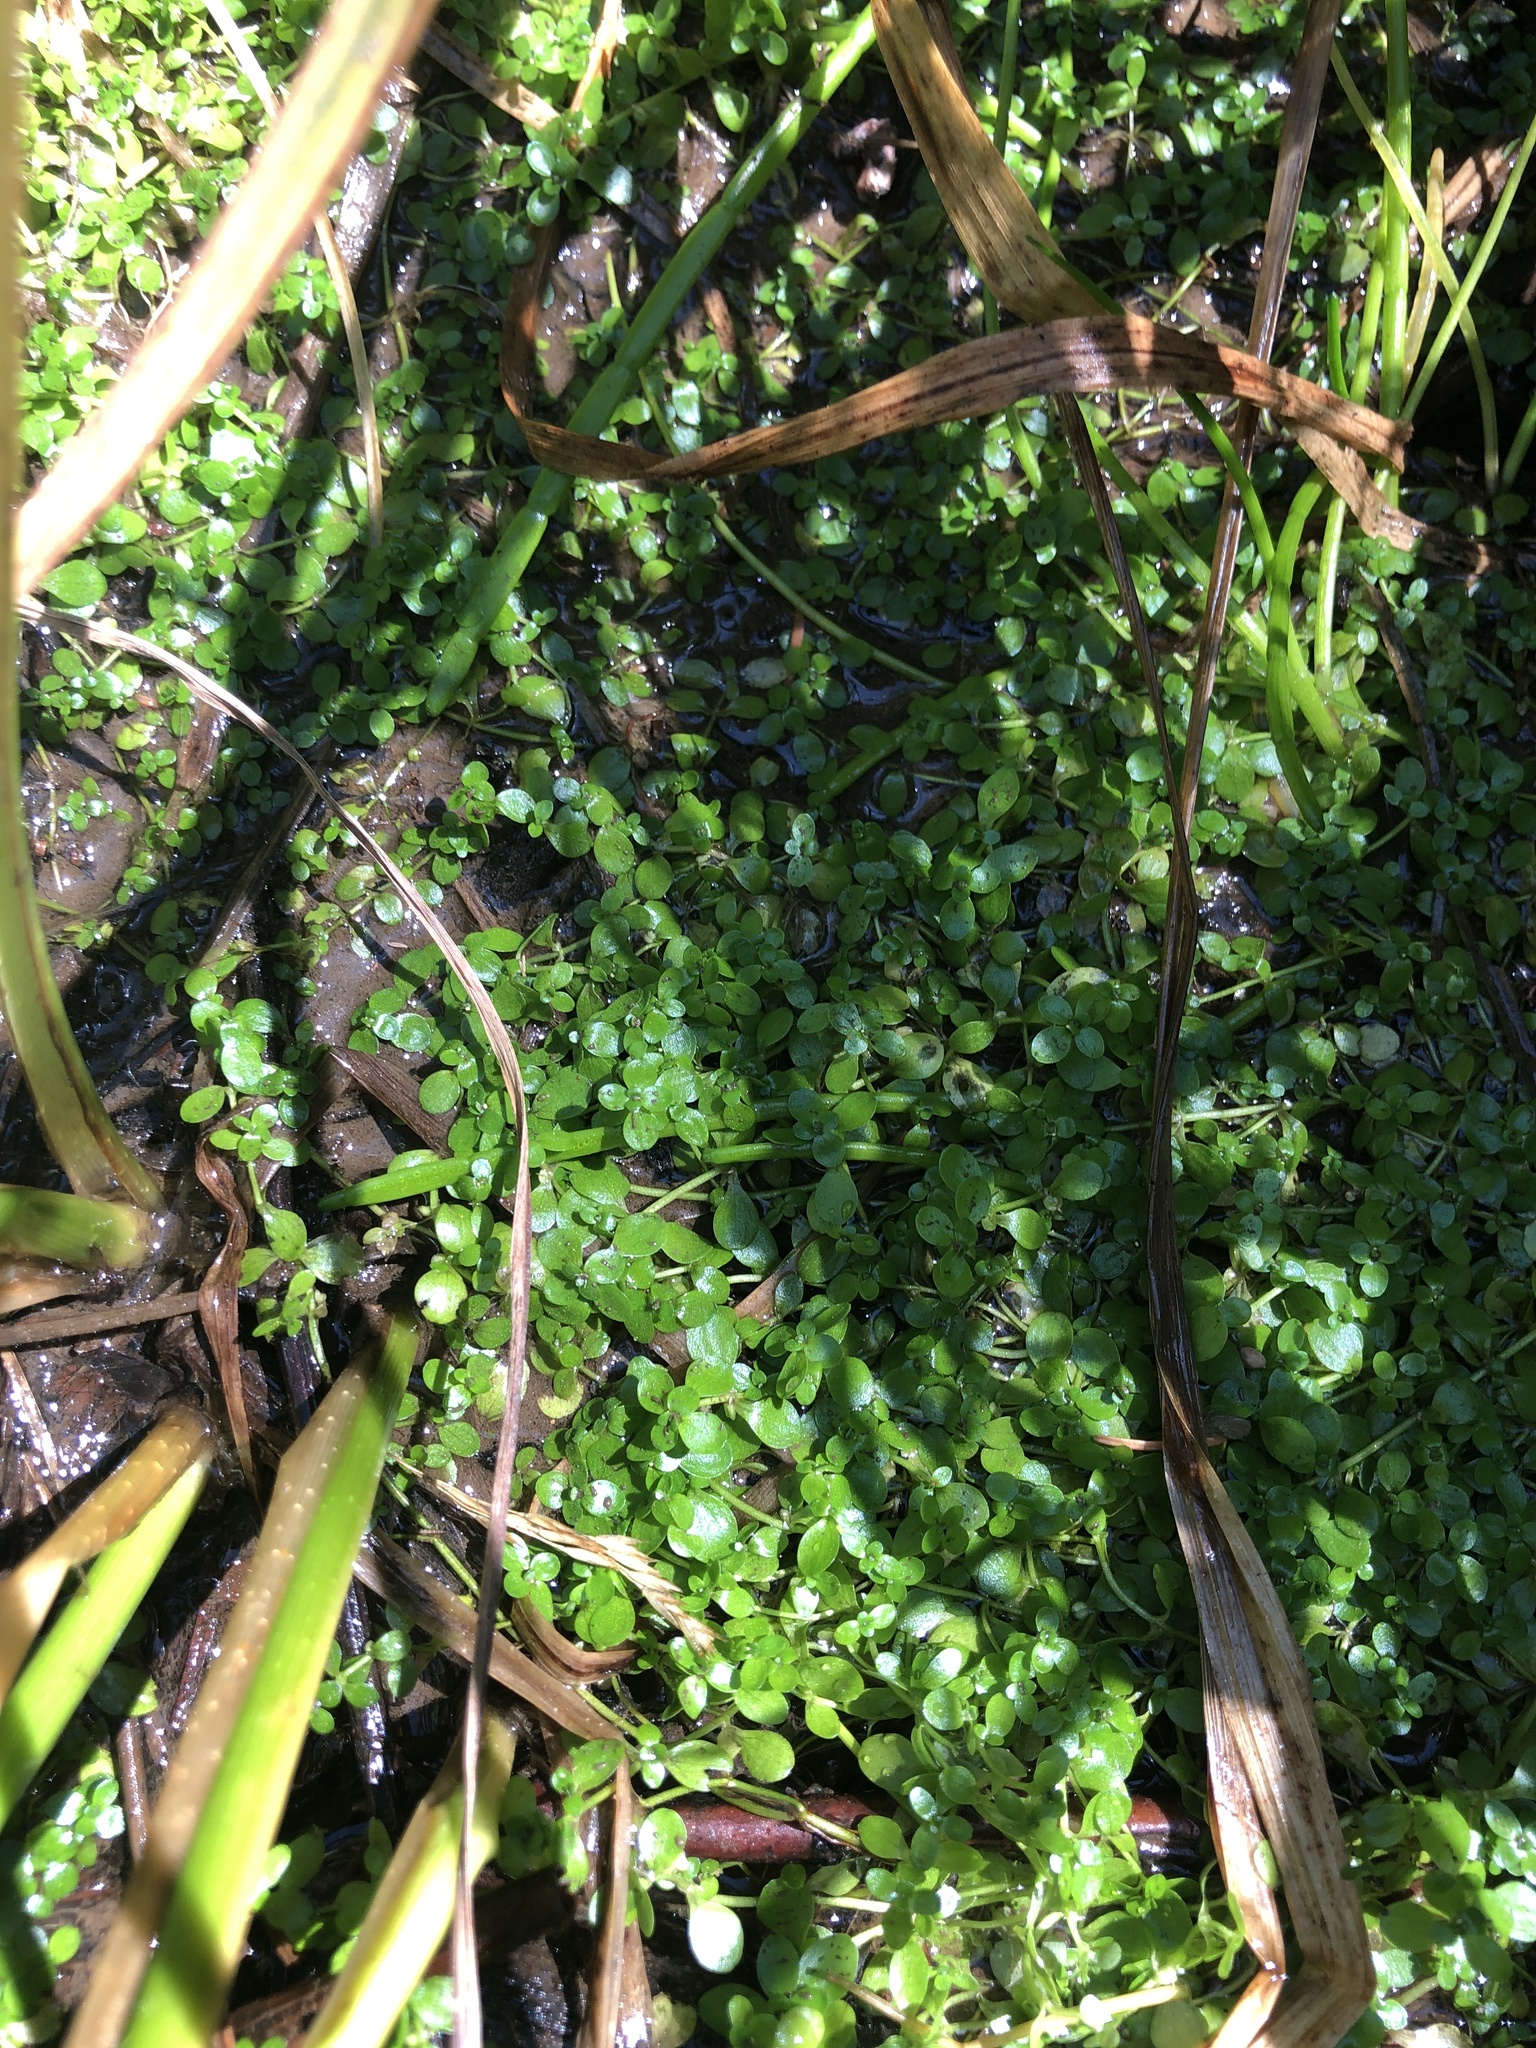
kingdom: Plantae
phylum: Tracheophyta
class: Magnoliopsida
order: Lamiales
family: Plantaginaceae
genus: Callitriche
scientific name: Callitriche stagnalis
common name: Common water-starwort
